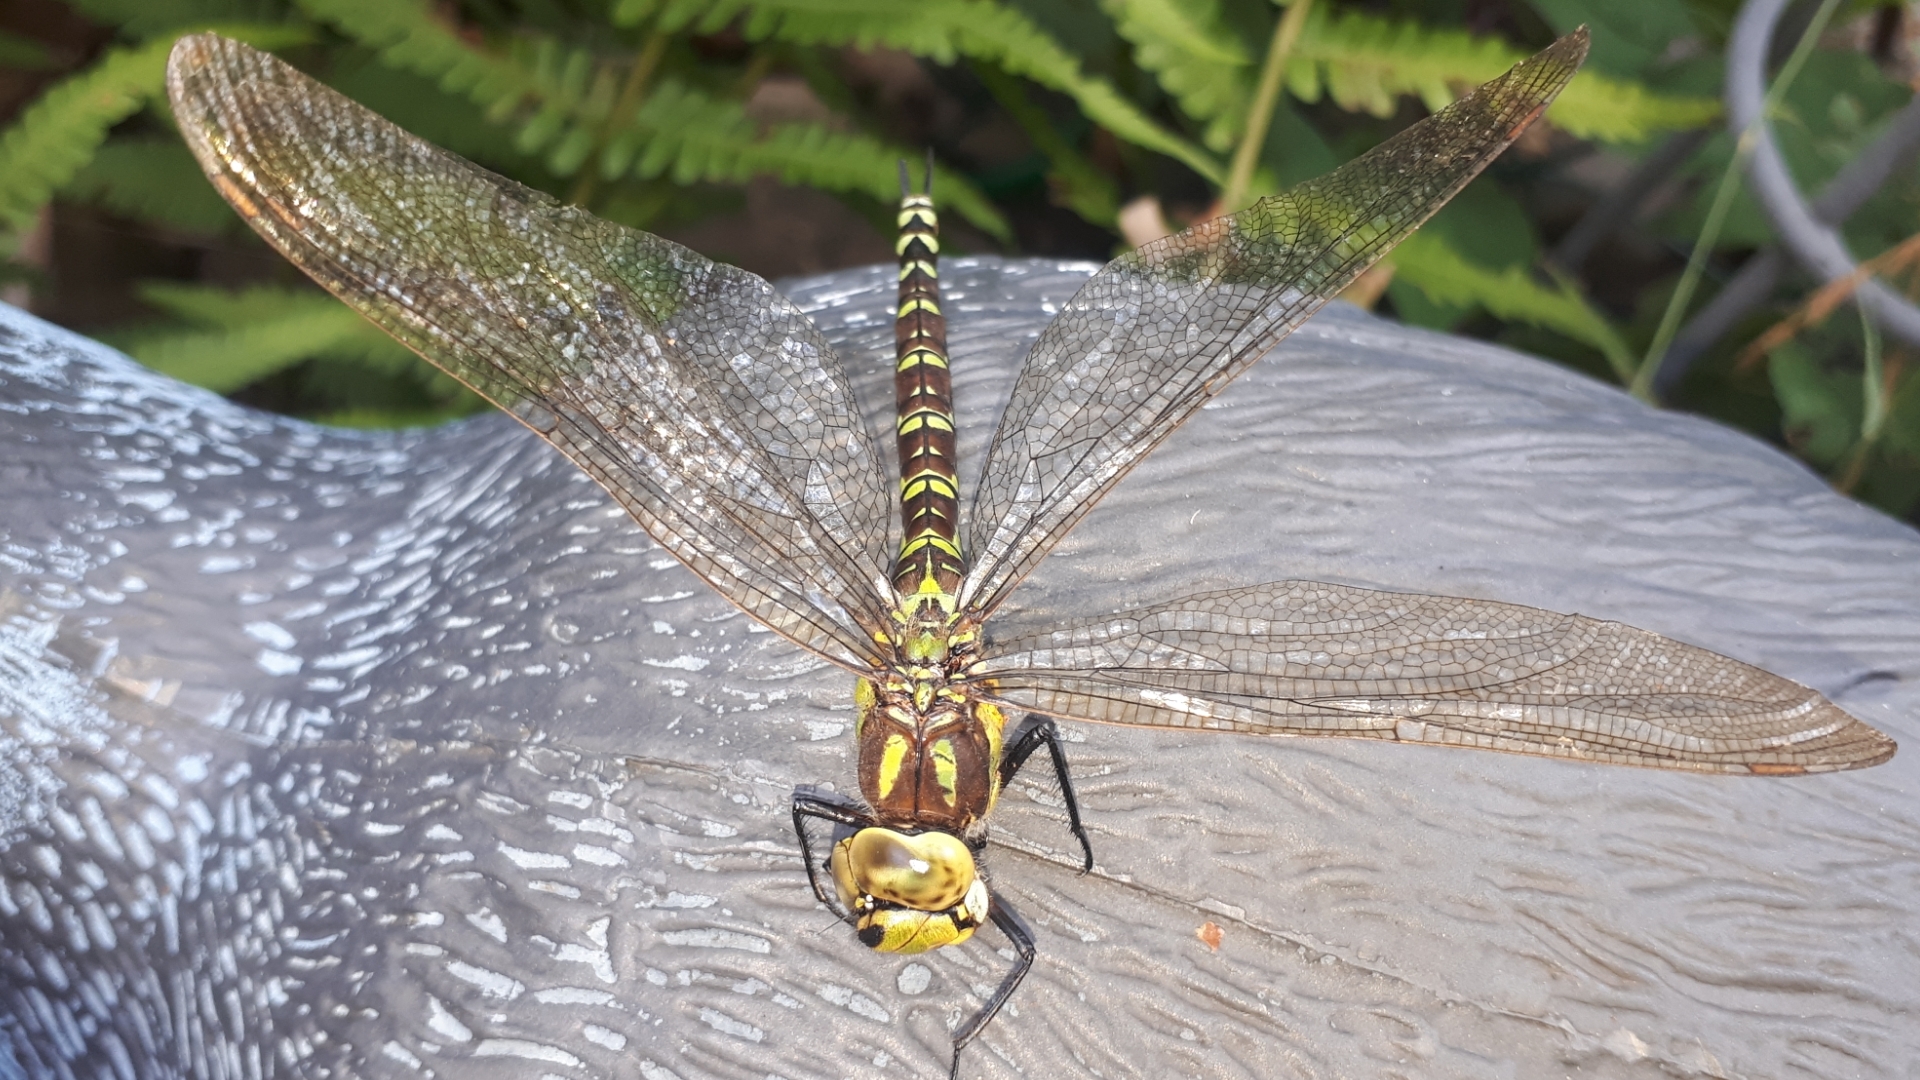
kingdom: Animalia
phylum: Arthropoda
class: Insecta
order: Odonata
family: Aeshnidae
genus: Aeshna
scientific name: Aeshna cyanea
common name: Southern hawker
